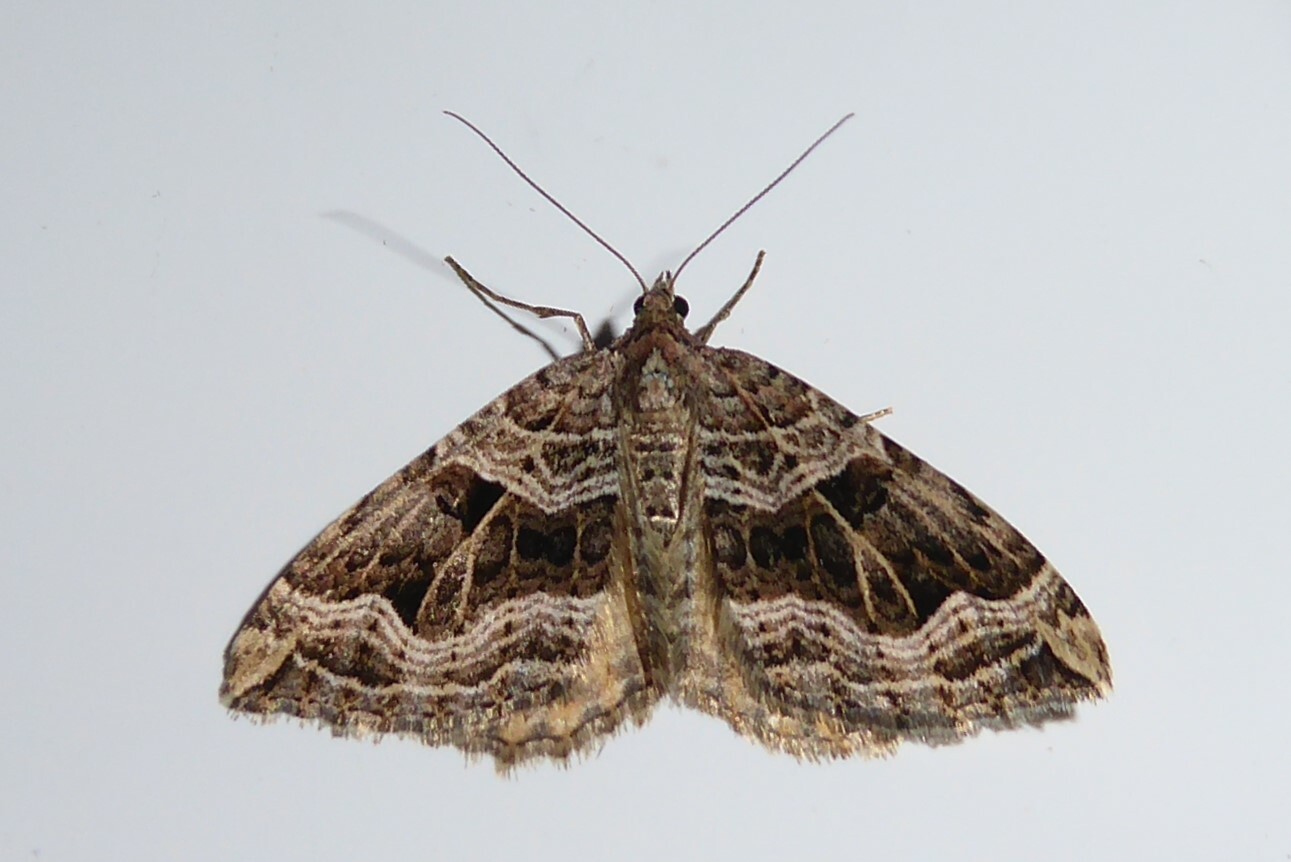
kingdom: Animalia
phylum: Arthropoda
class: Insecta
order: Lepidoptera
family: Geometridae
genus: Xanthorhoe
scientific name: Xanthorhoe semifissata
